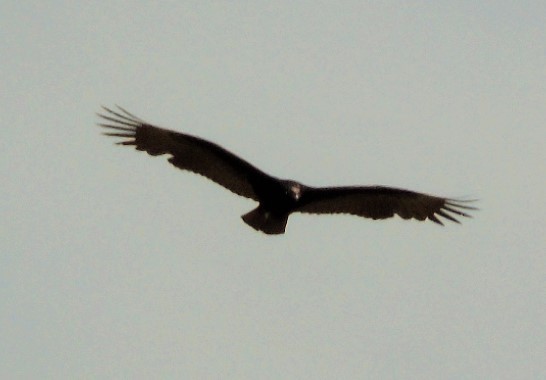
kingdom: Animalia
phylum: Chordata
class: Aves
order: Accipitriformes
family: Cathartidae
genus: Cathartes
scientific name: Cathartes aura
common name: Turkey vulture
